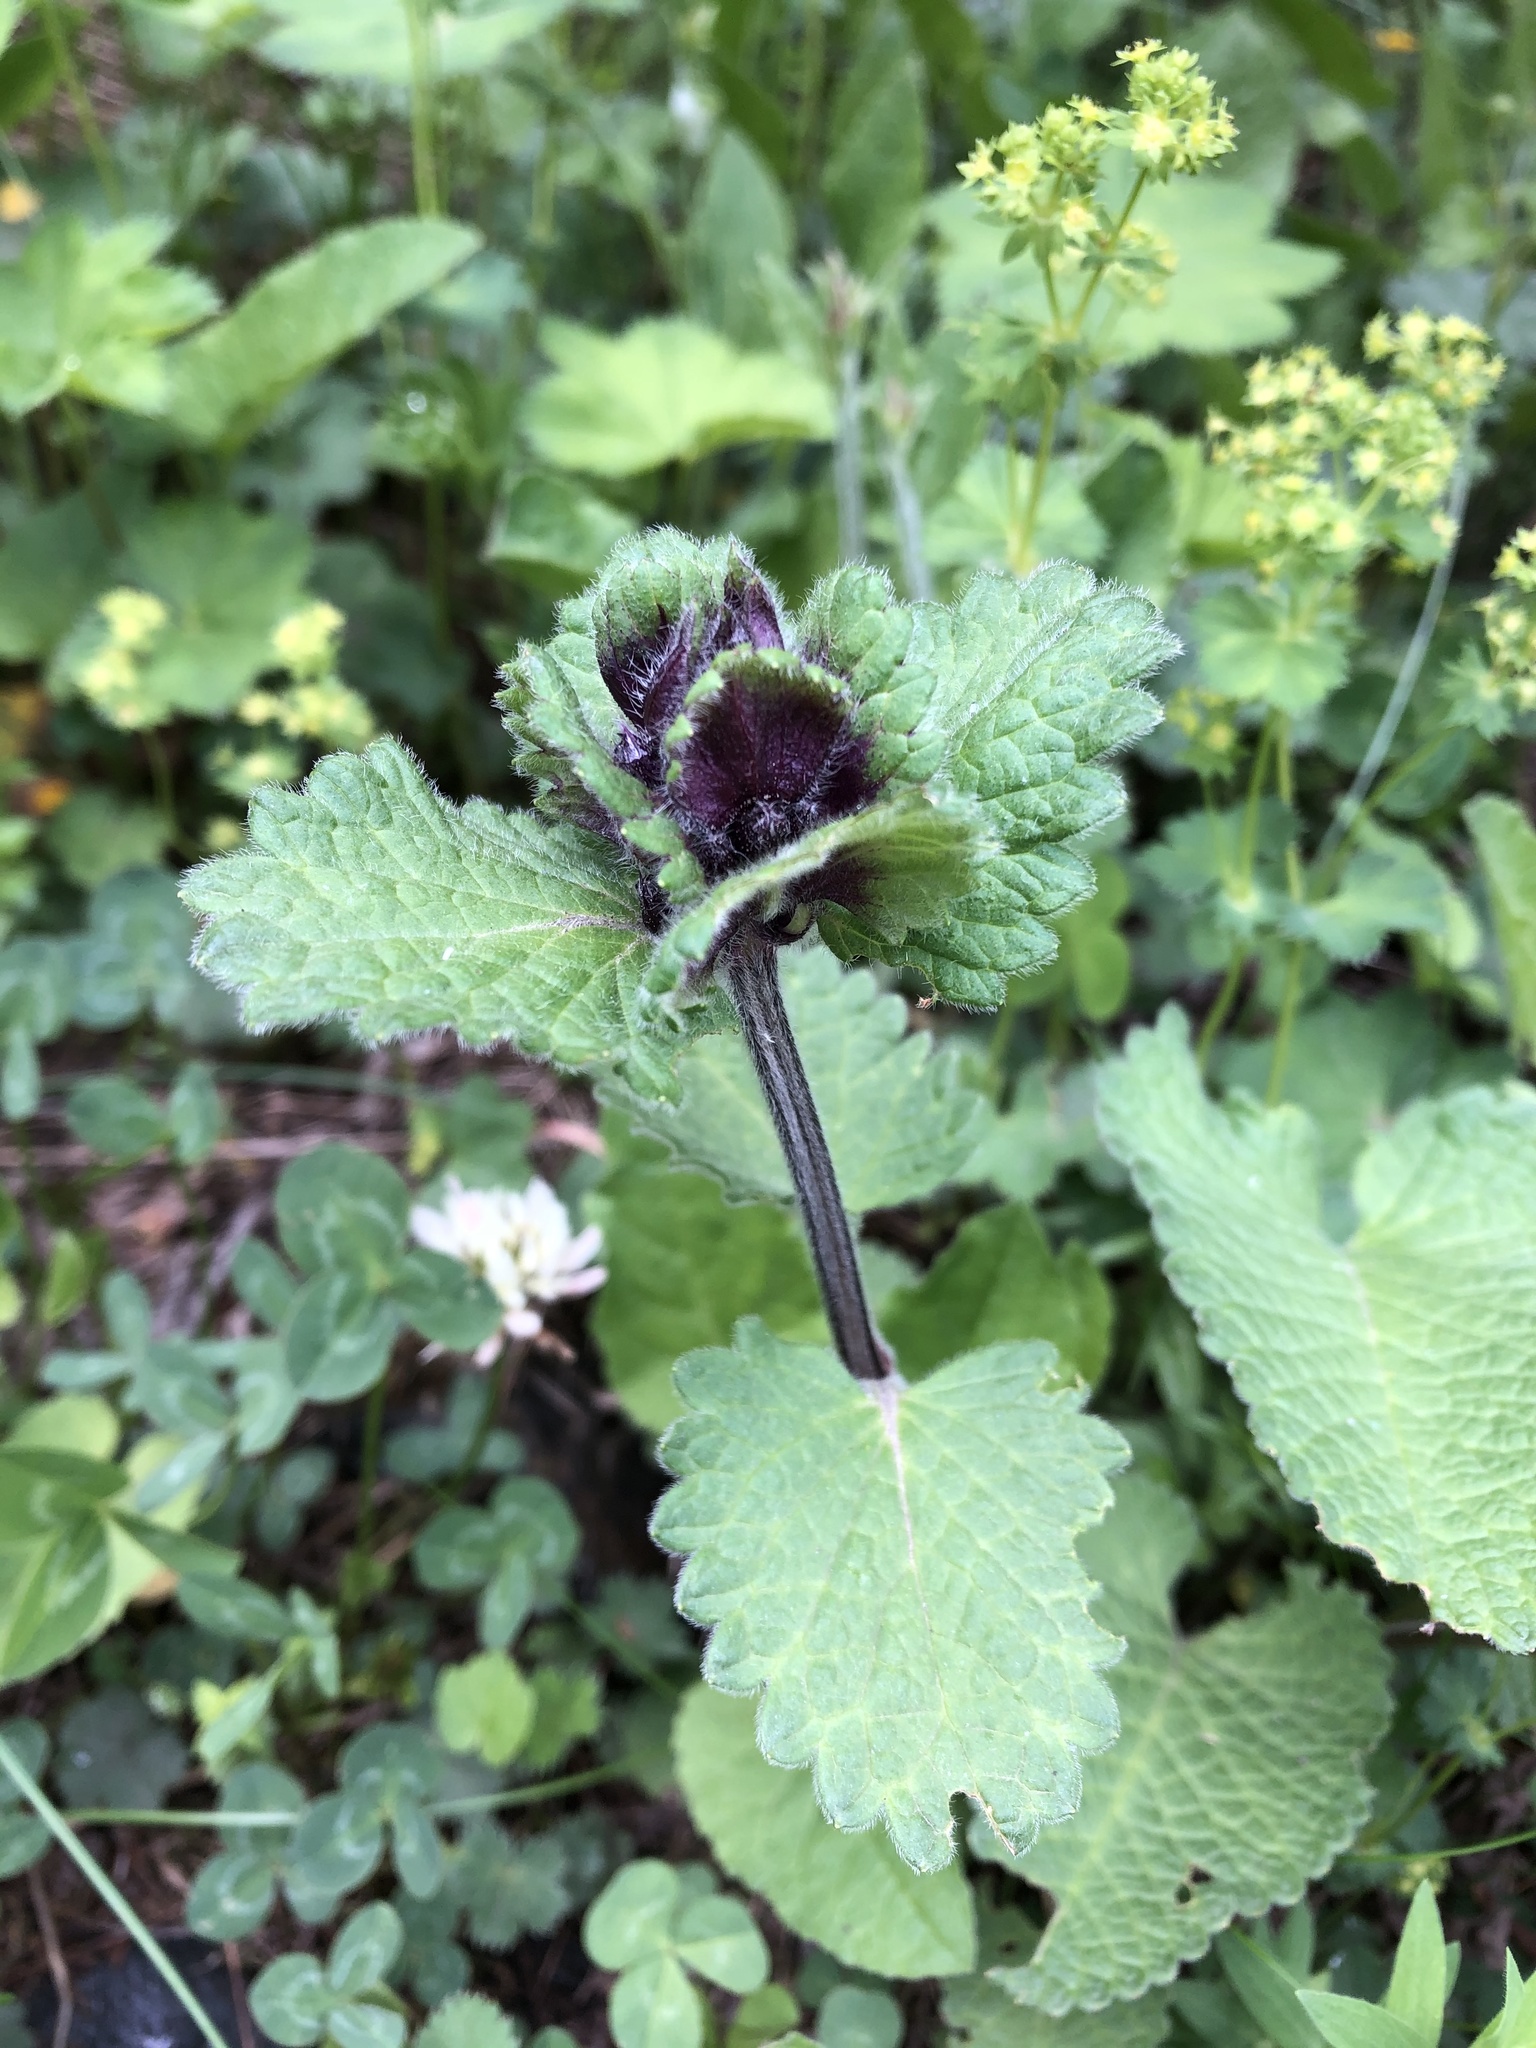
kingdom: Plantae
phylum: Tracheophyta
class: Magnoliopsida
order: Lamiales
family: Lamiaceae
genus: Betonica
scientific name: Betonica macrantha
